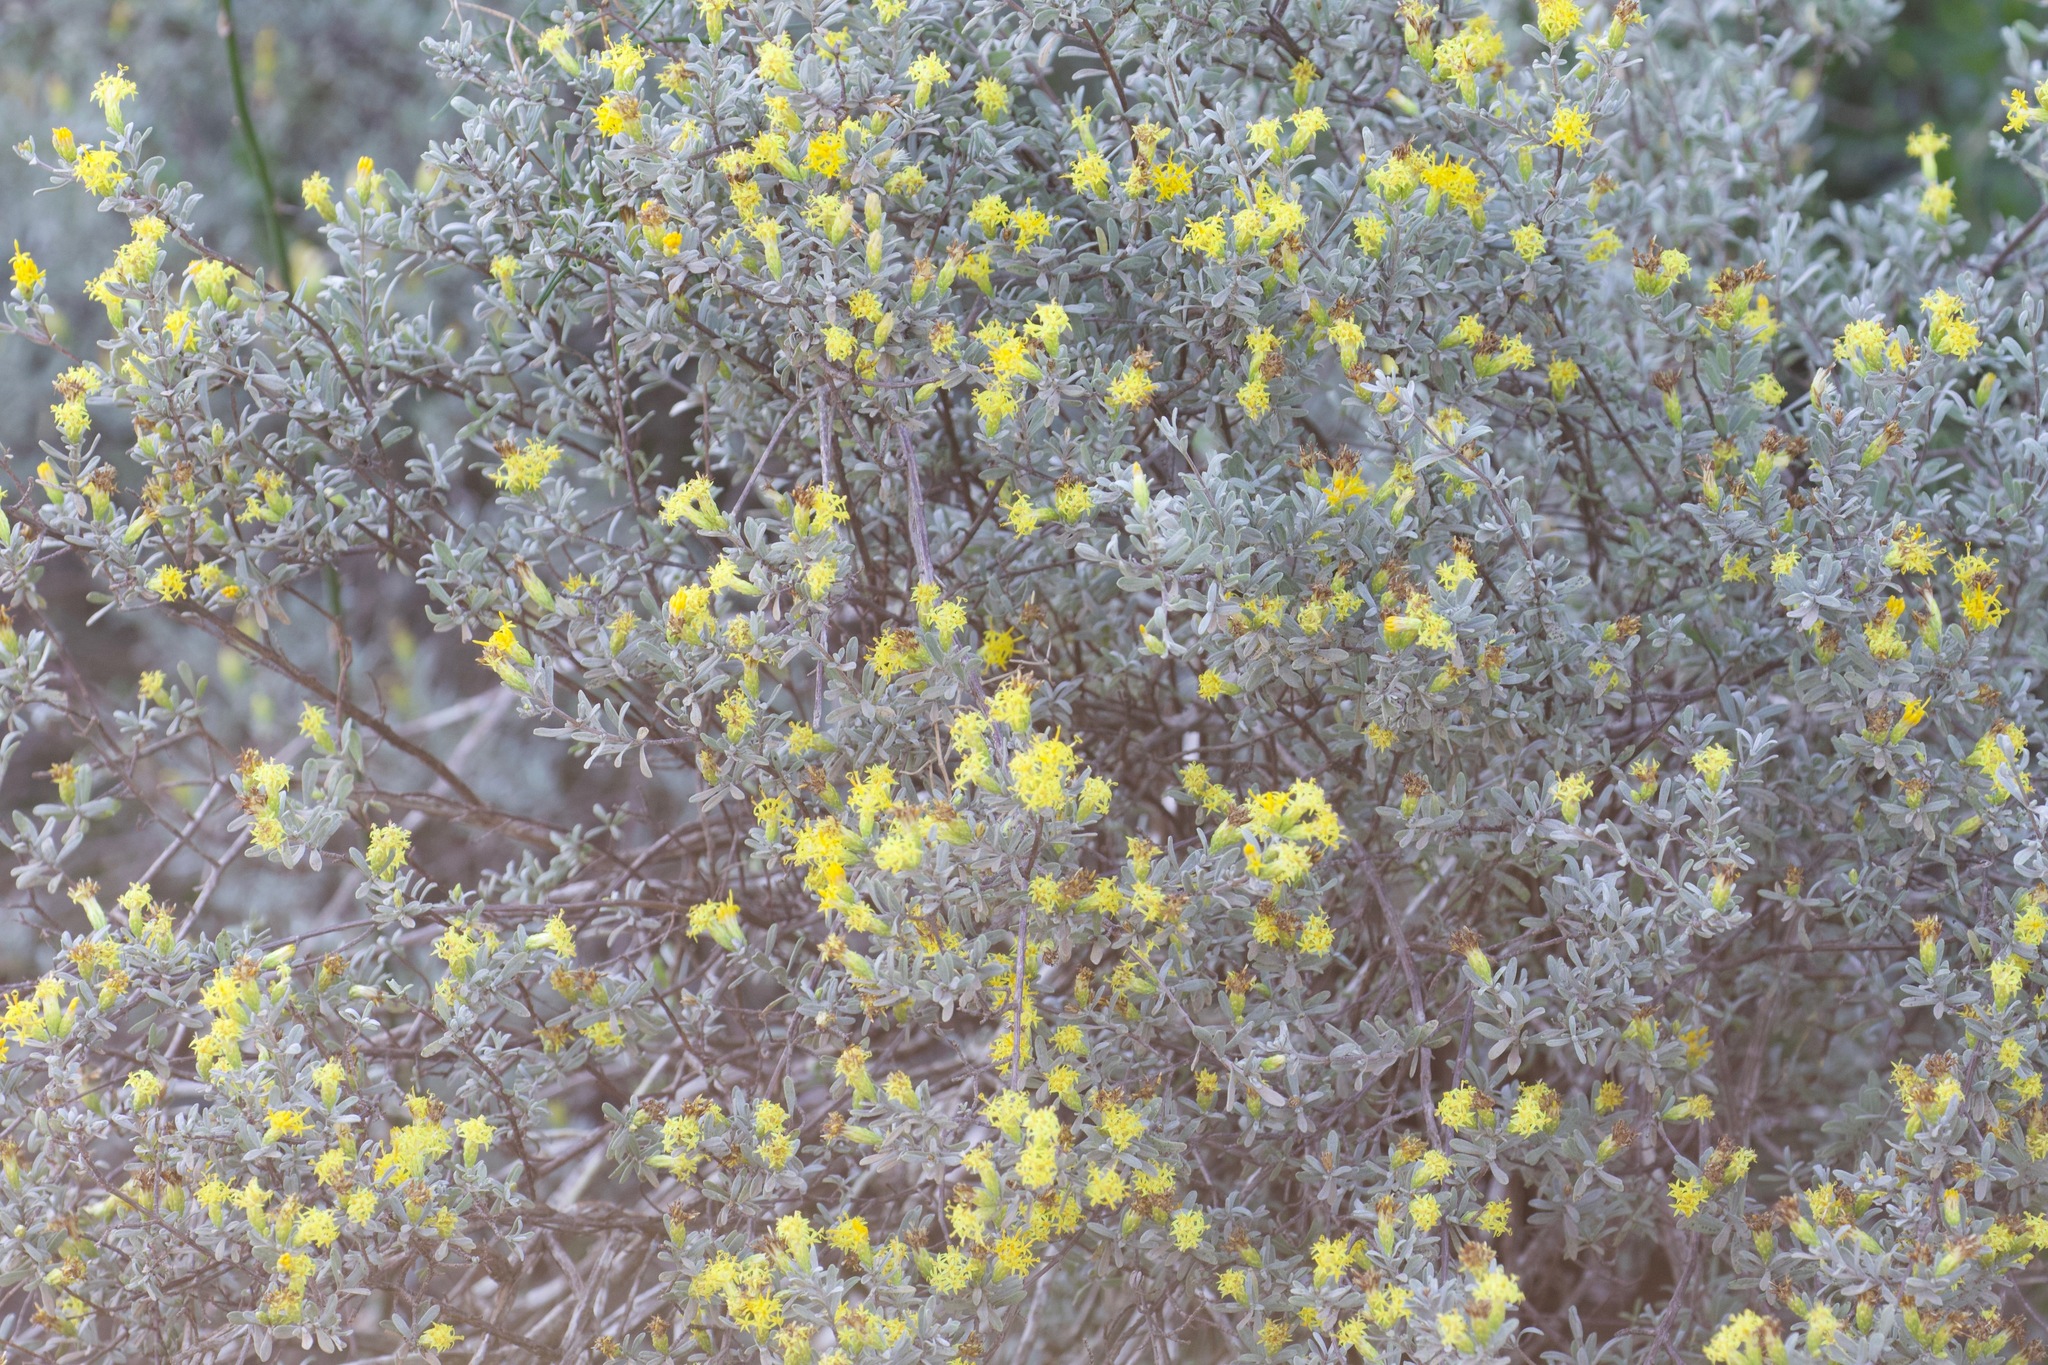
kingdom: Plantae
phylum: Tracheophyta
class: Magnoliopsida
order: Asterales
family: Asteraceae
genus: Pteronia
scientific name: Pteronia incana
